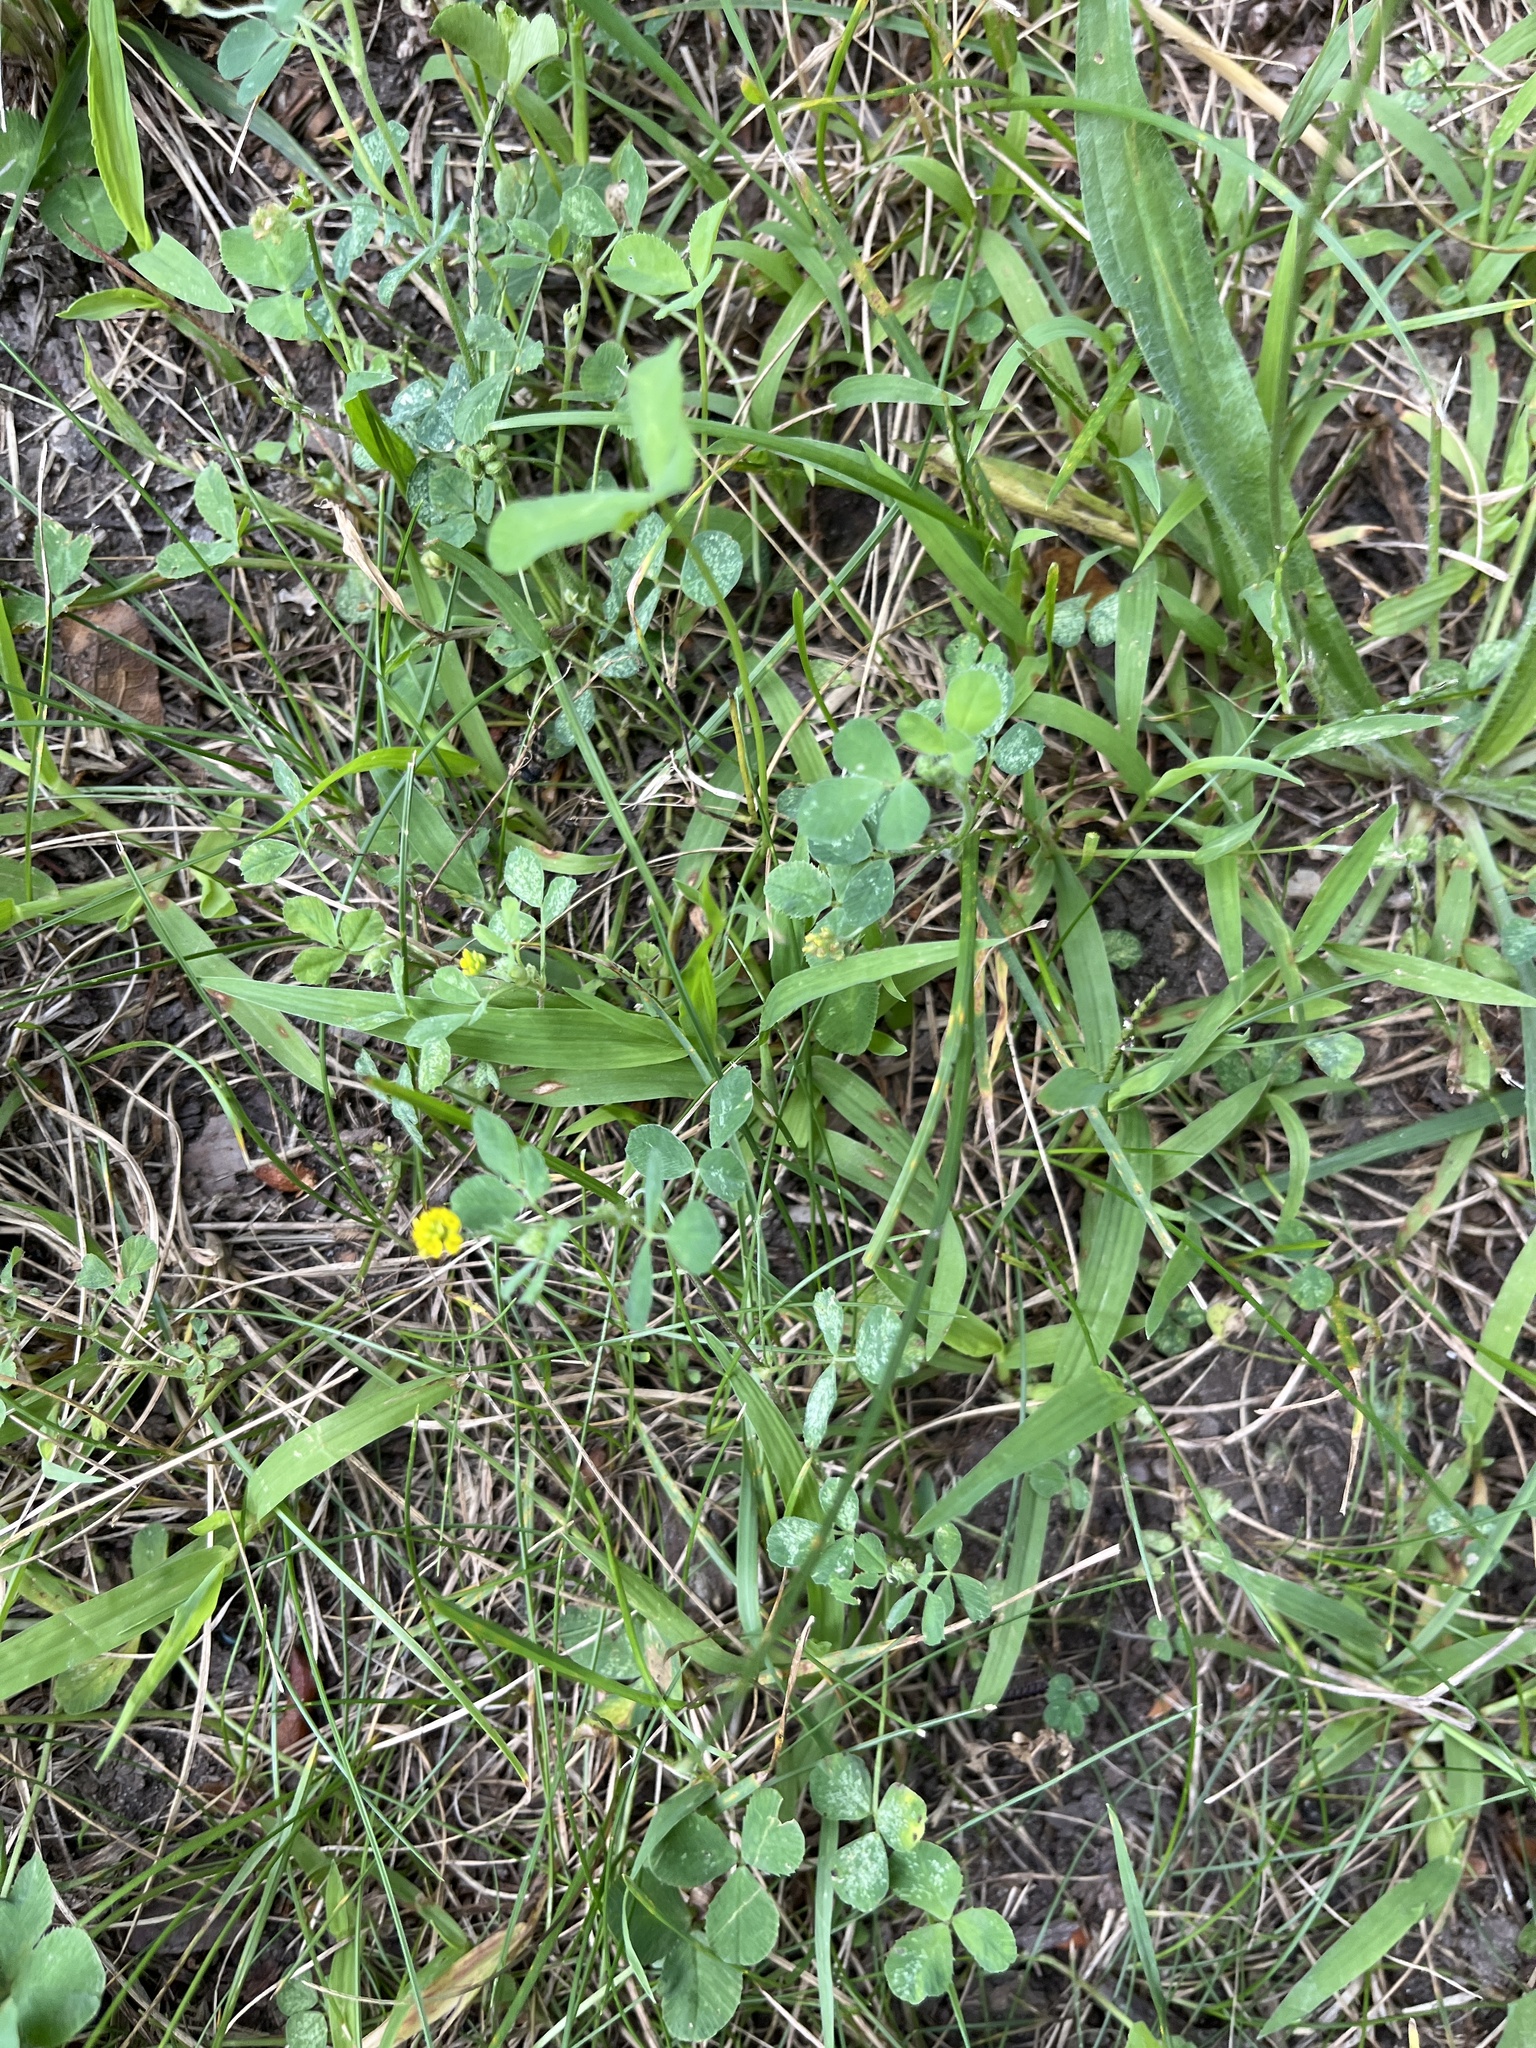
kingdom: Plantae
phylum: Tracheophyta
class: Magnoliopsida
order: Fabales
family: Fabaceae
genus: Medicago
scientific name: Medicago lupulina
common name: Black medick
